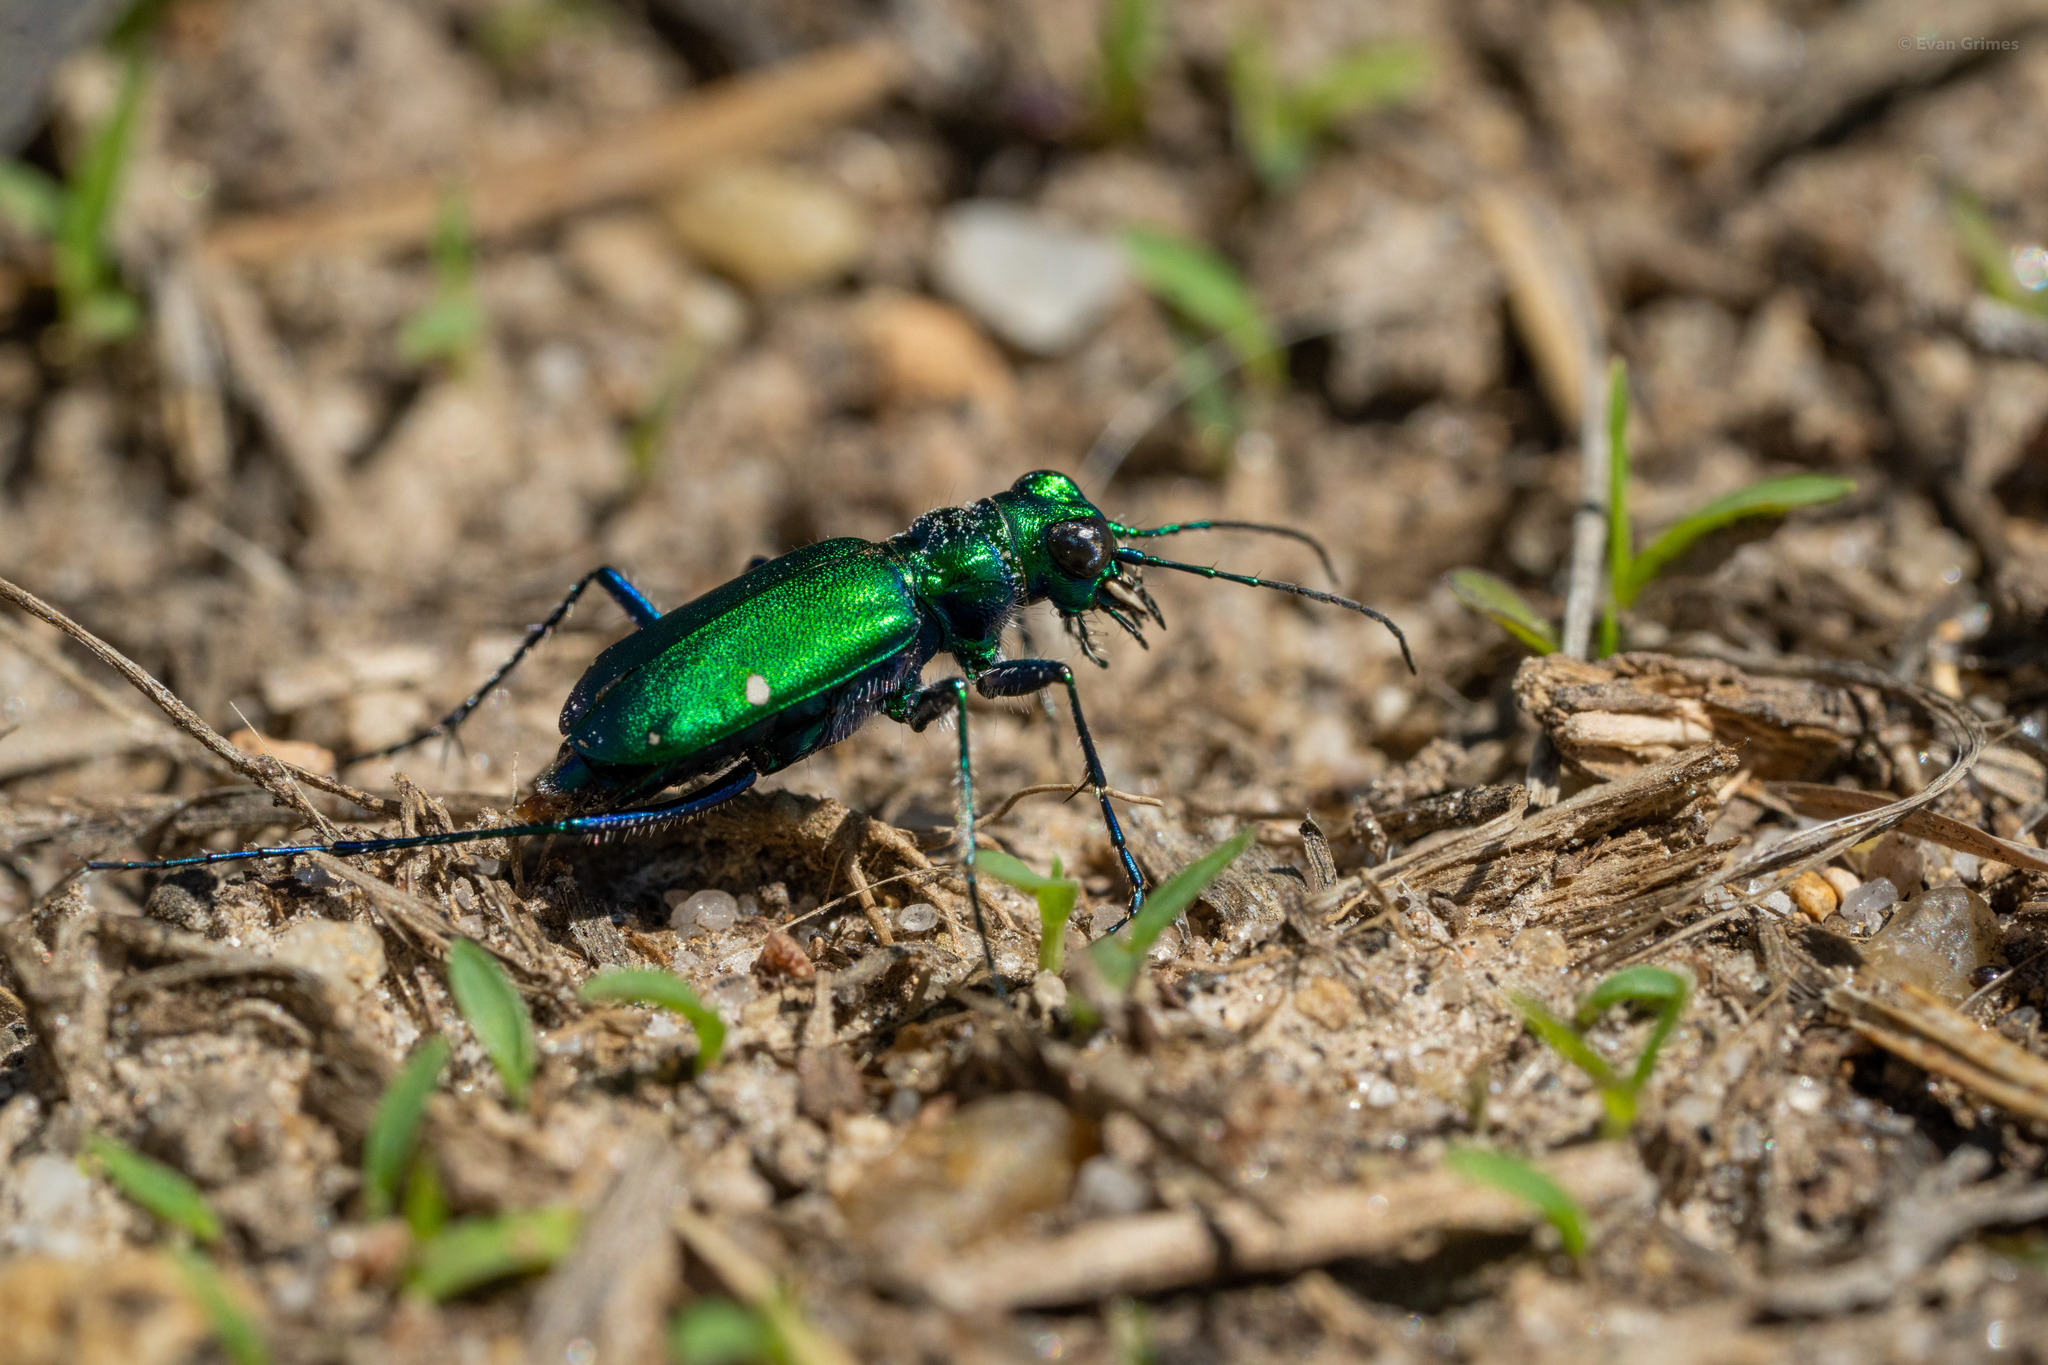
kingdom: Animalia
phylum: Arthropoda
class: Insecta
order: Coleoptera
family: Carabidae
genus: Cicindela
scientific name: Cicindela sexguttata
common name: Six-spotted tiger beetle
